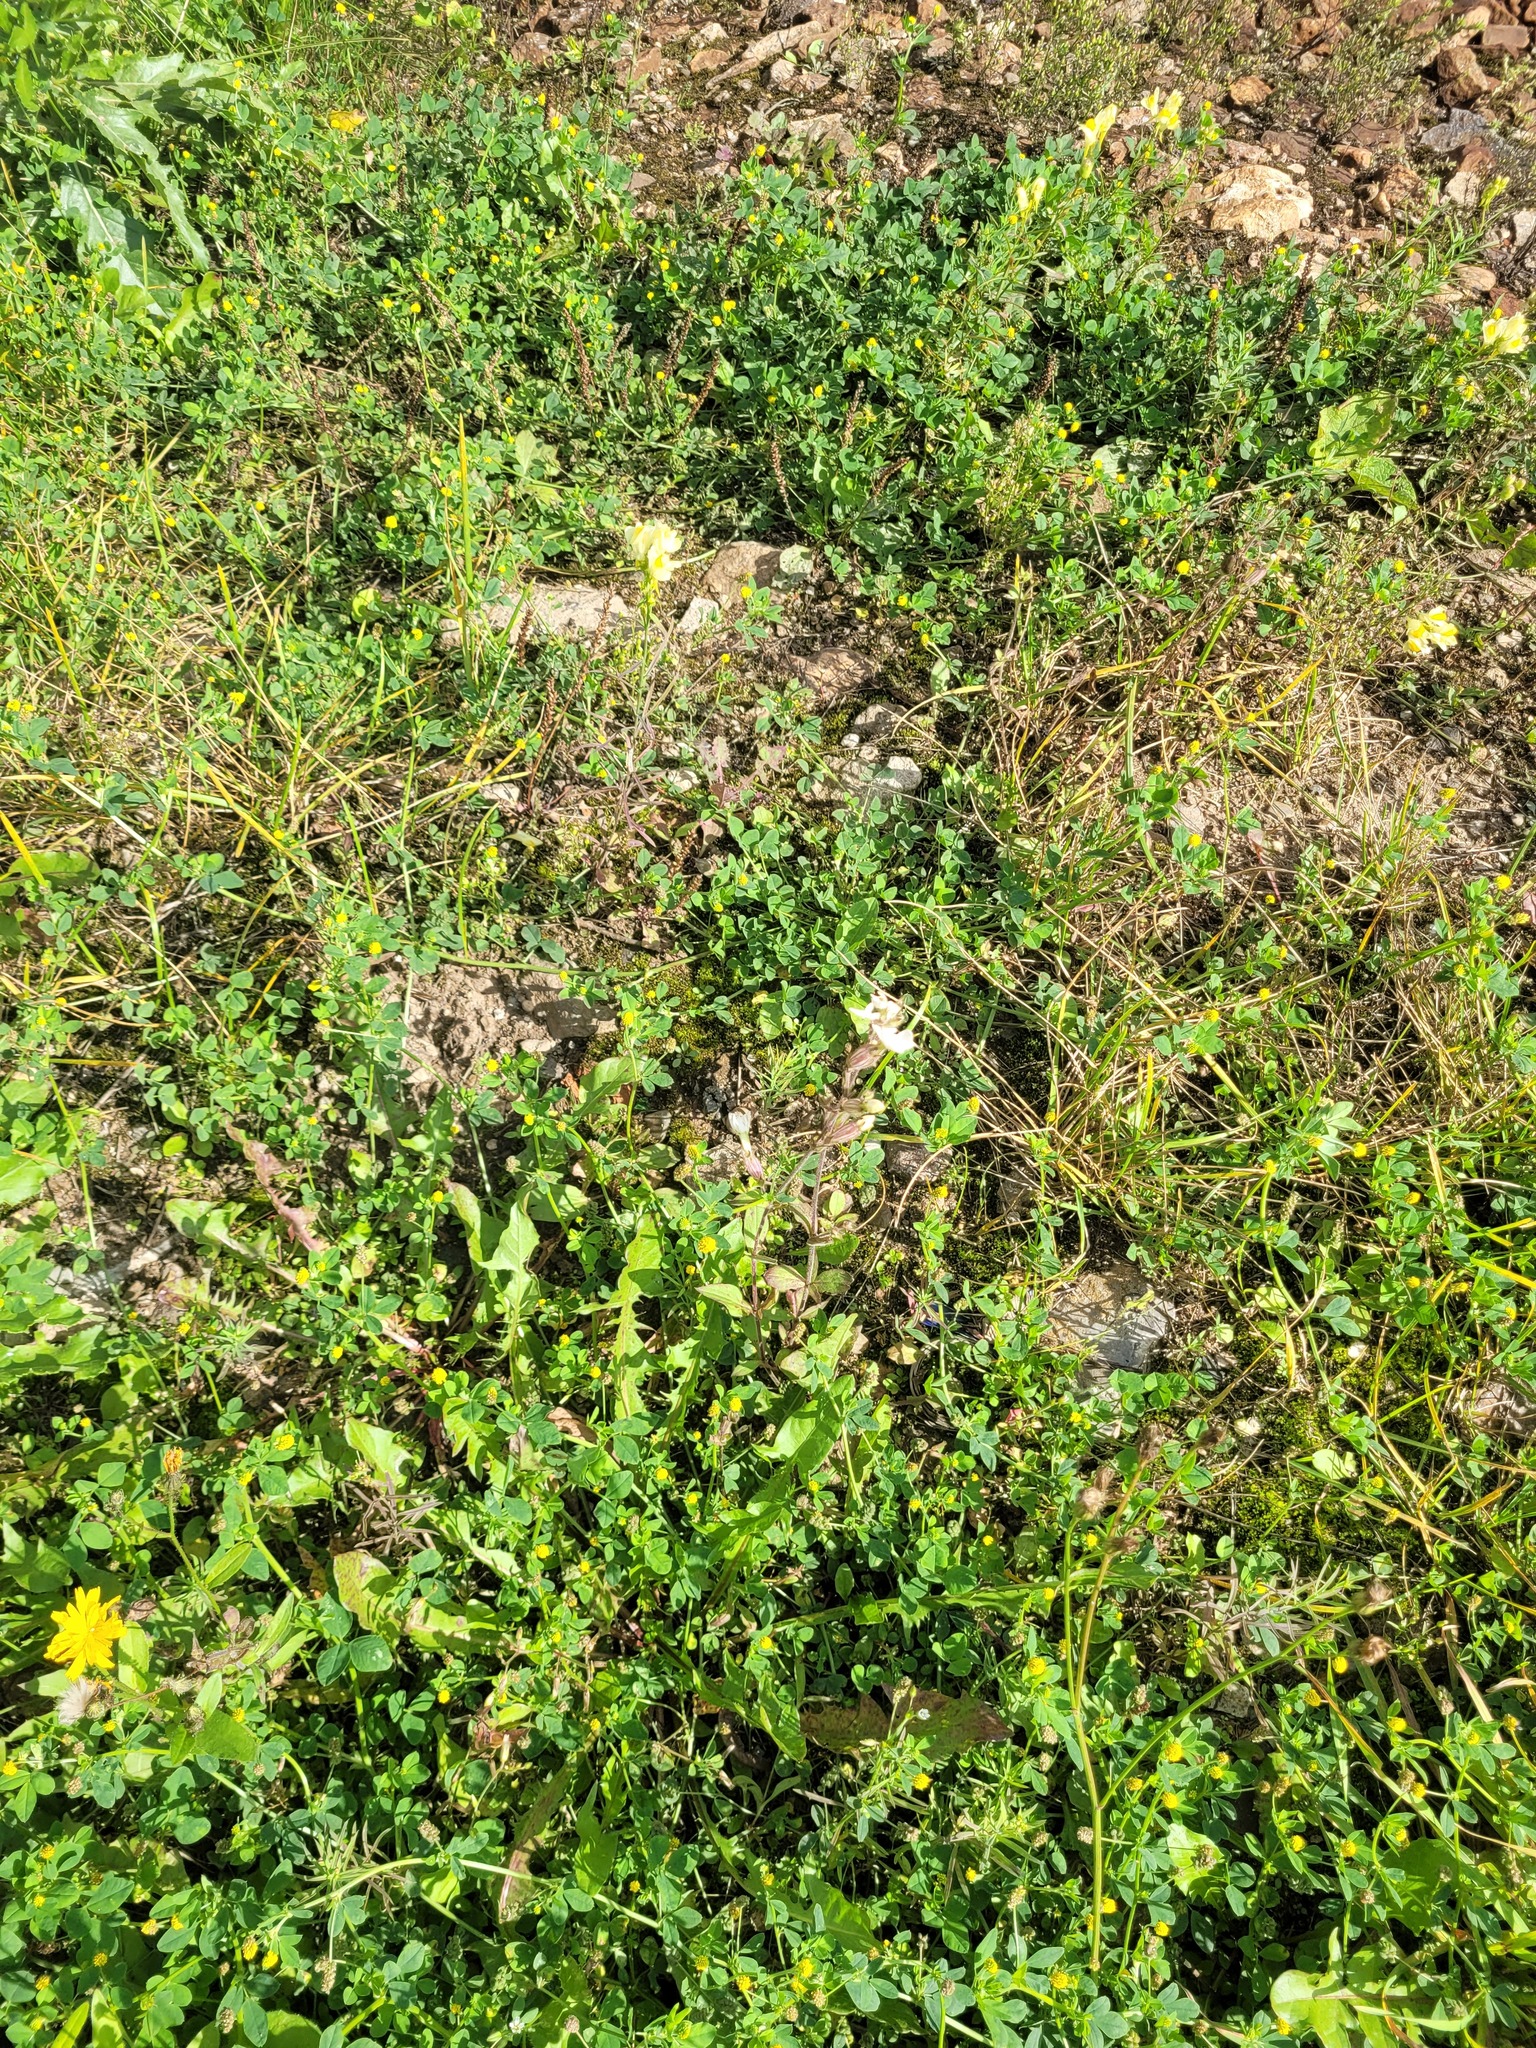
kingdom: Plantae
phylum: Tracheophyta
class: Magnoliopsida
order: Caryophyllales
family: Caryophyllaceae
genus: Silene
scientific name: Silene latifolia
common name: White campion
